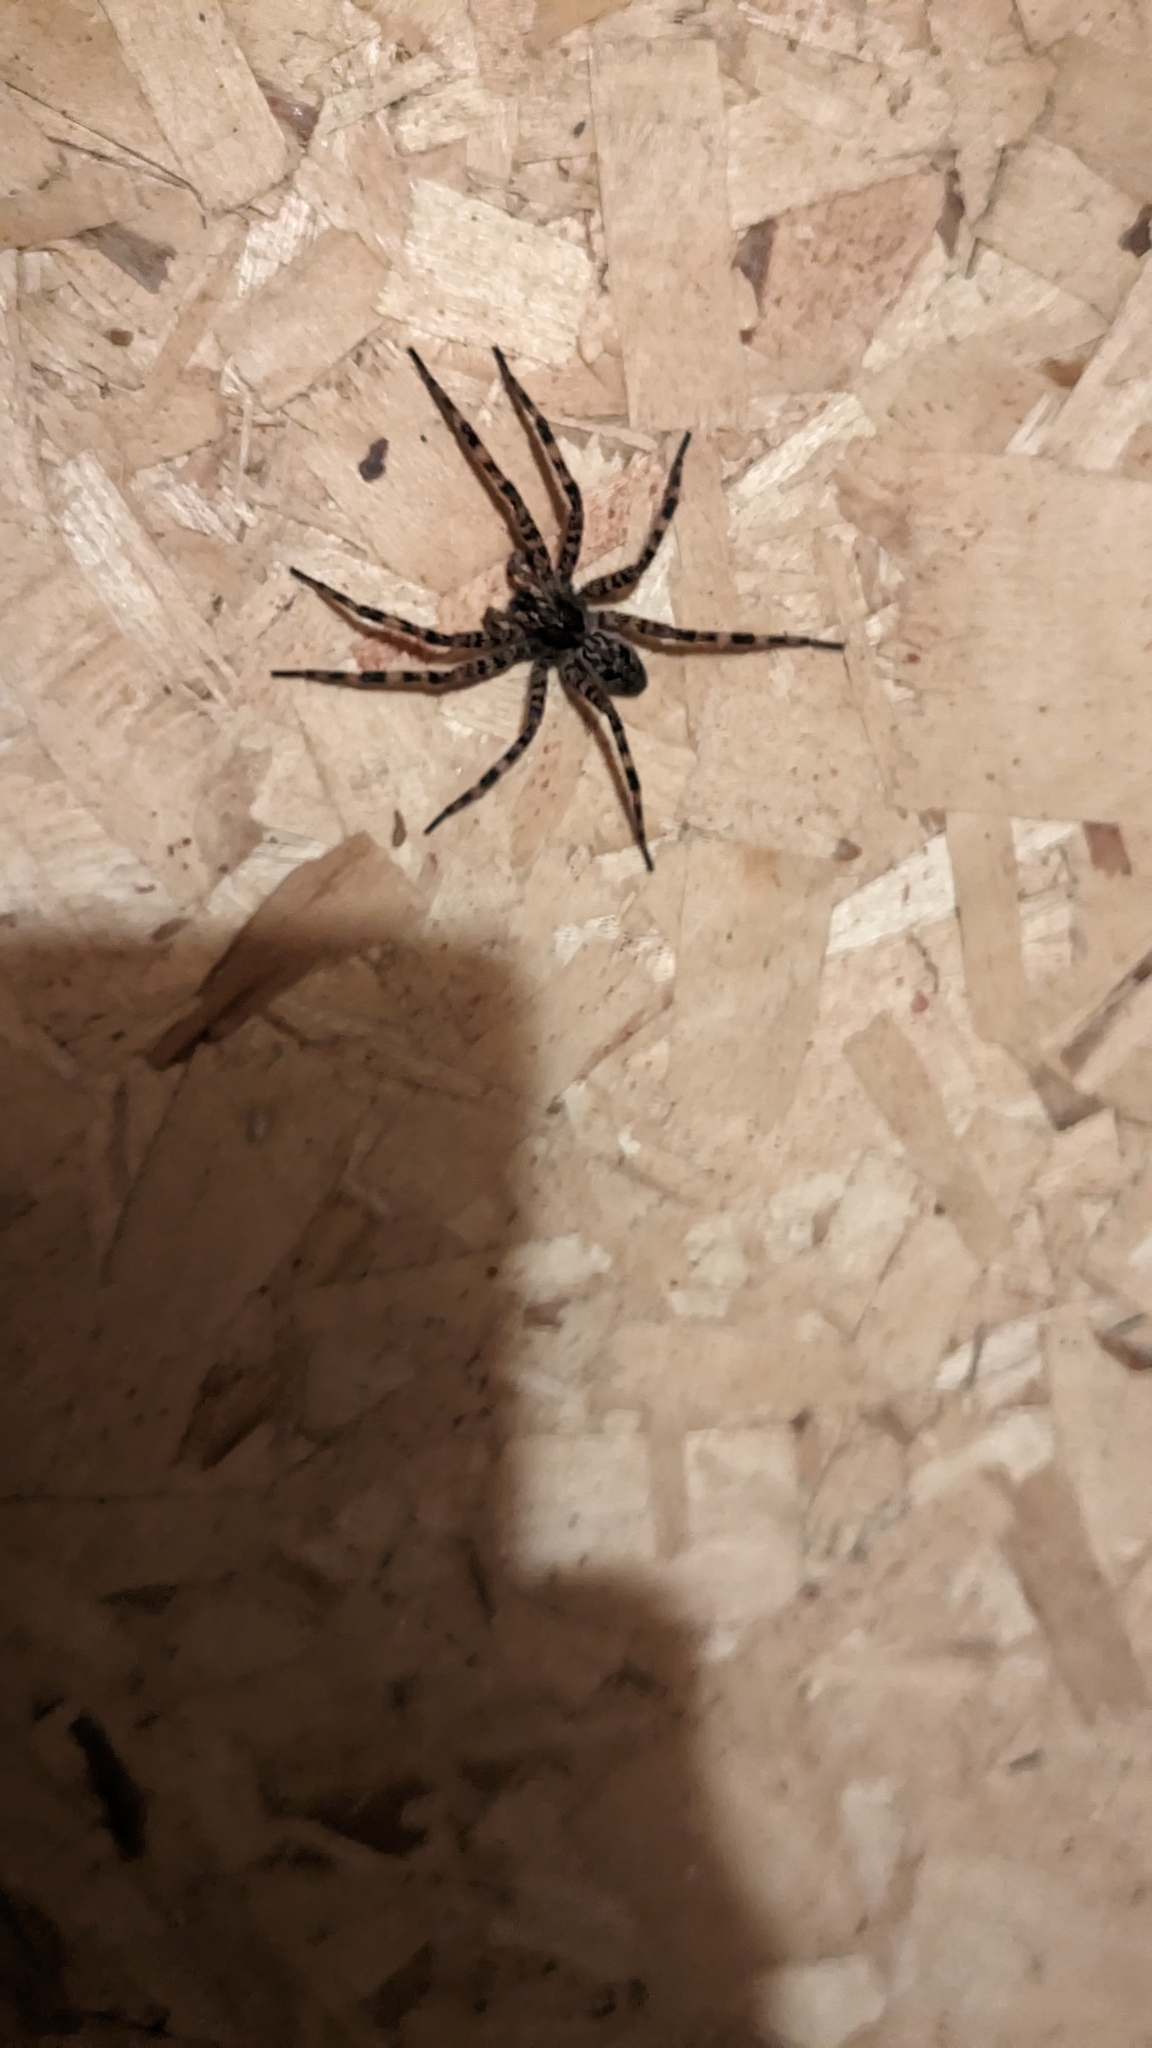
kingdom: Animalia
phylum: Arthropoda
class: Arachnida
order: Araneae
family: Pisauridae
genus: Dolomedes
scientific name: Dolomedes tenebrosus
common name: Dark fishing spider
